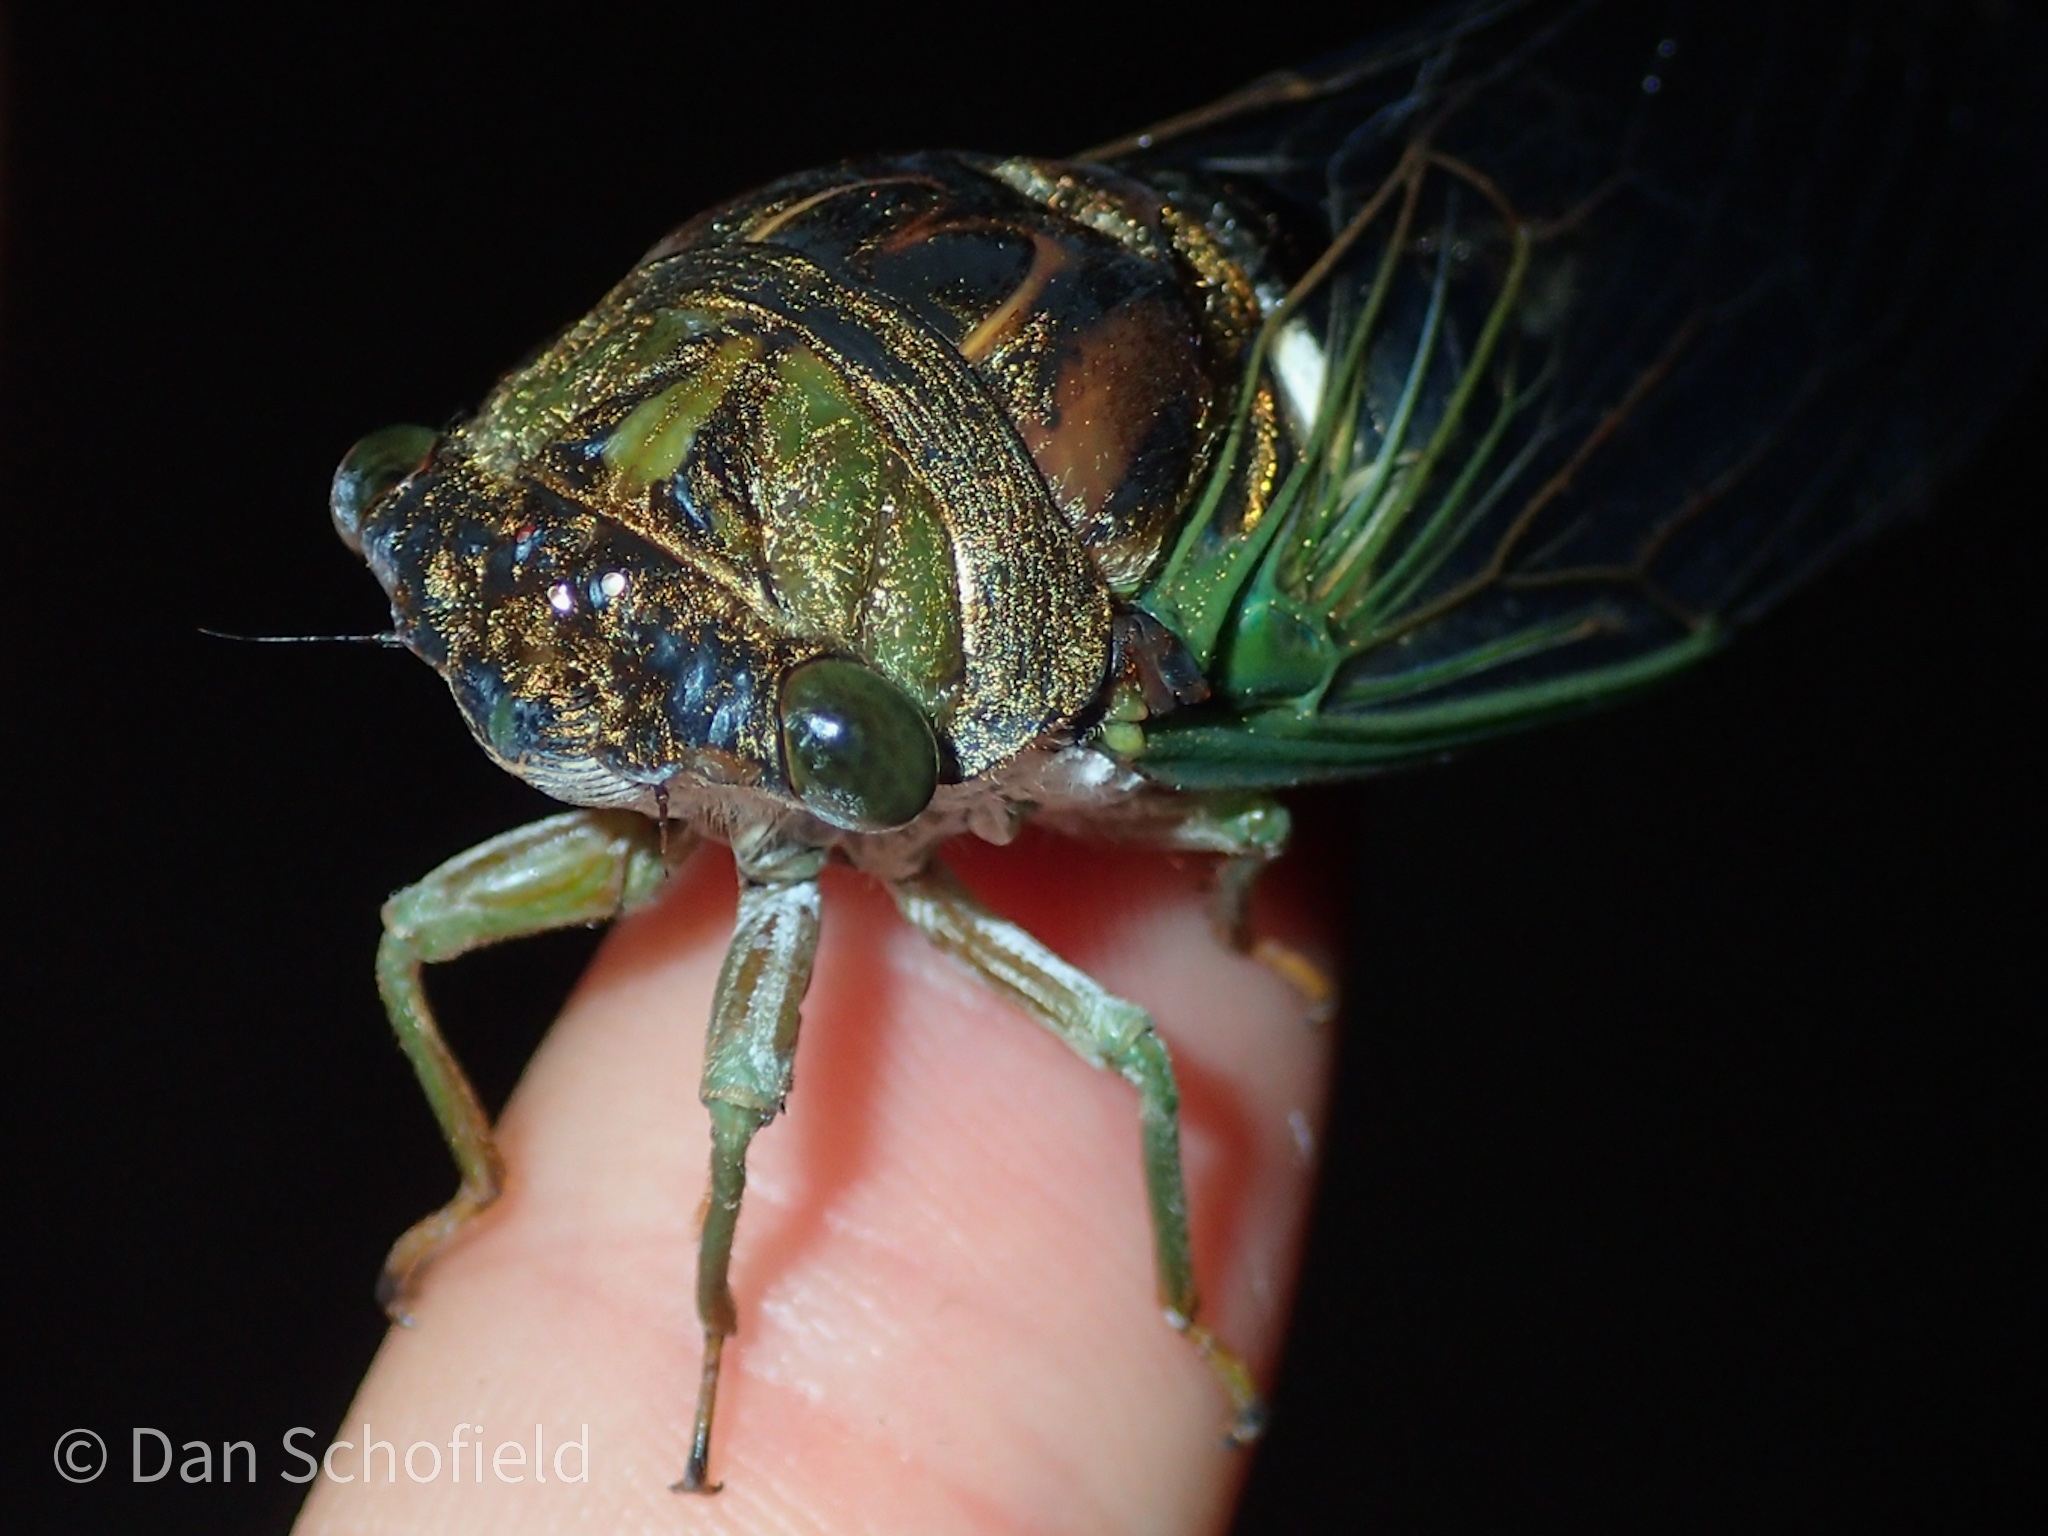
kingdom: Animalia
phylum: Arthropoda
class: Insecta
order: Hemiptera
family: Cicadidae
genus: Neotibicen
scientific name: Neotibicen tibicen
